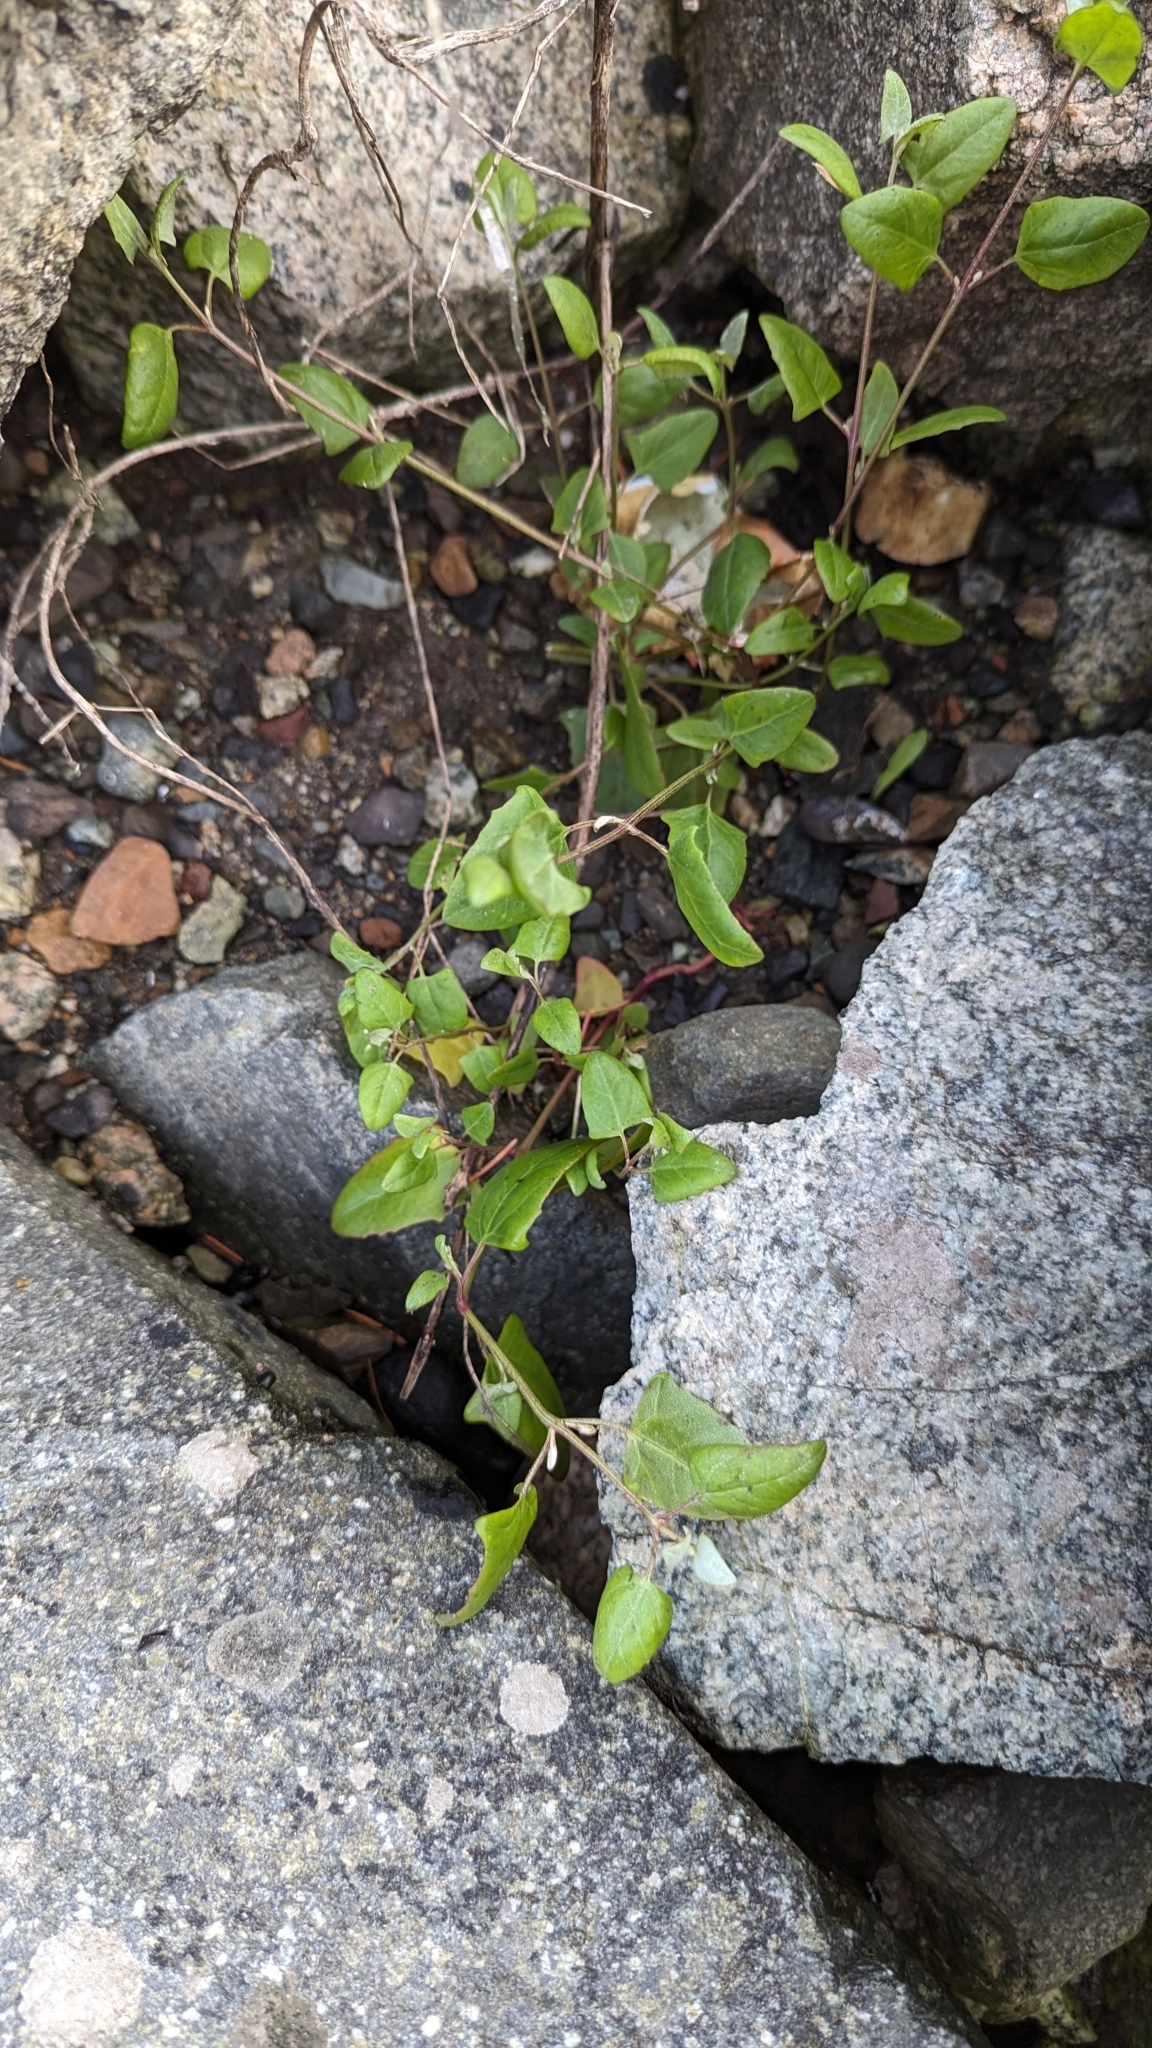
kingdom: Plantae
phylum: Tracheophyta
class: Magnoliopsida
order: Caryophyllales
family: Amaranthaceae
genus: Atriplex
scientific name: Atriplex prostrata
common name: Spear-leaved orache
